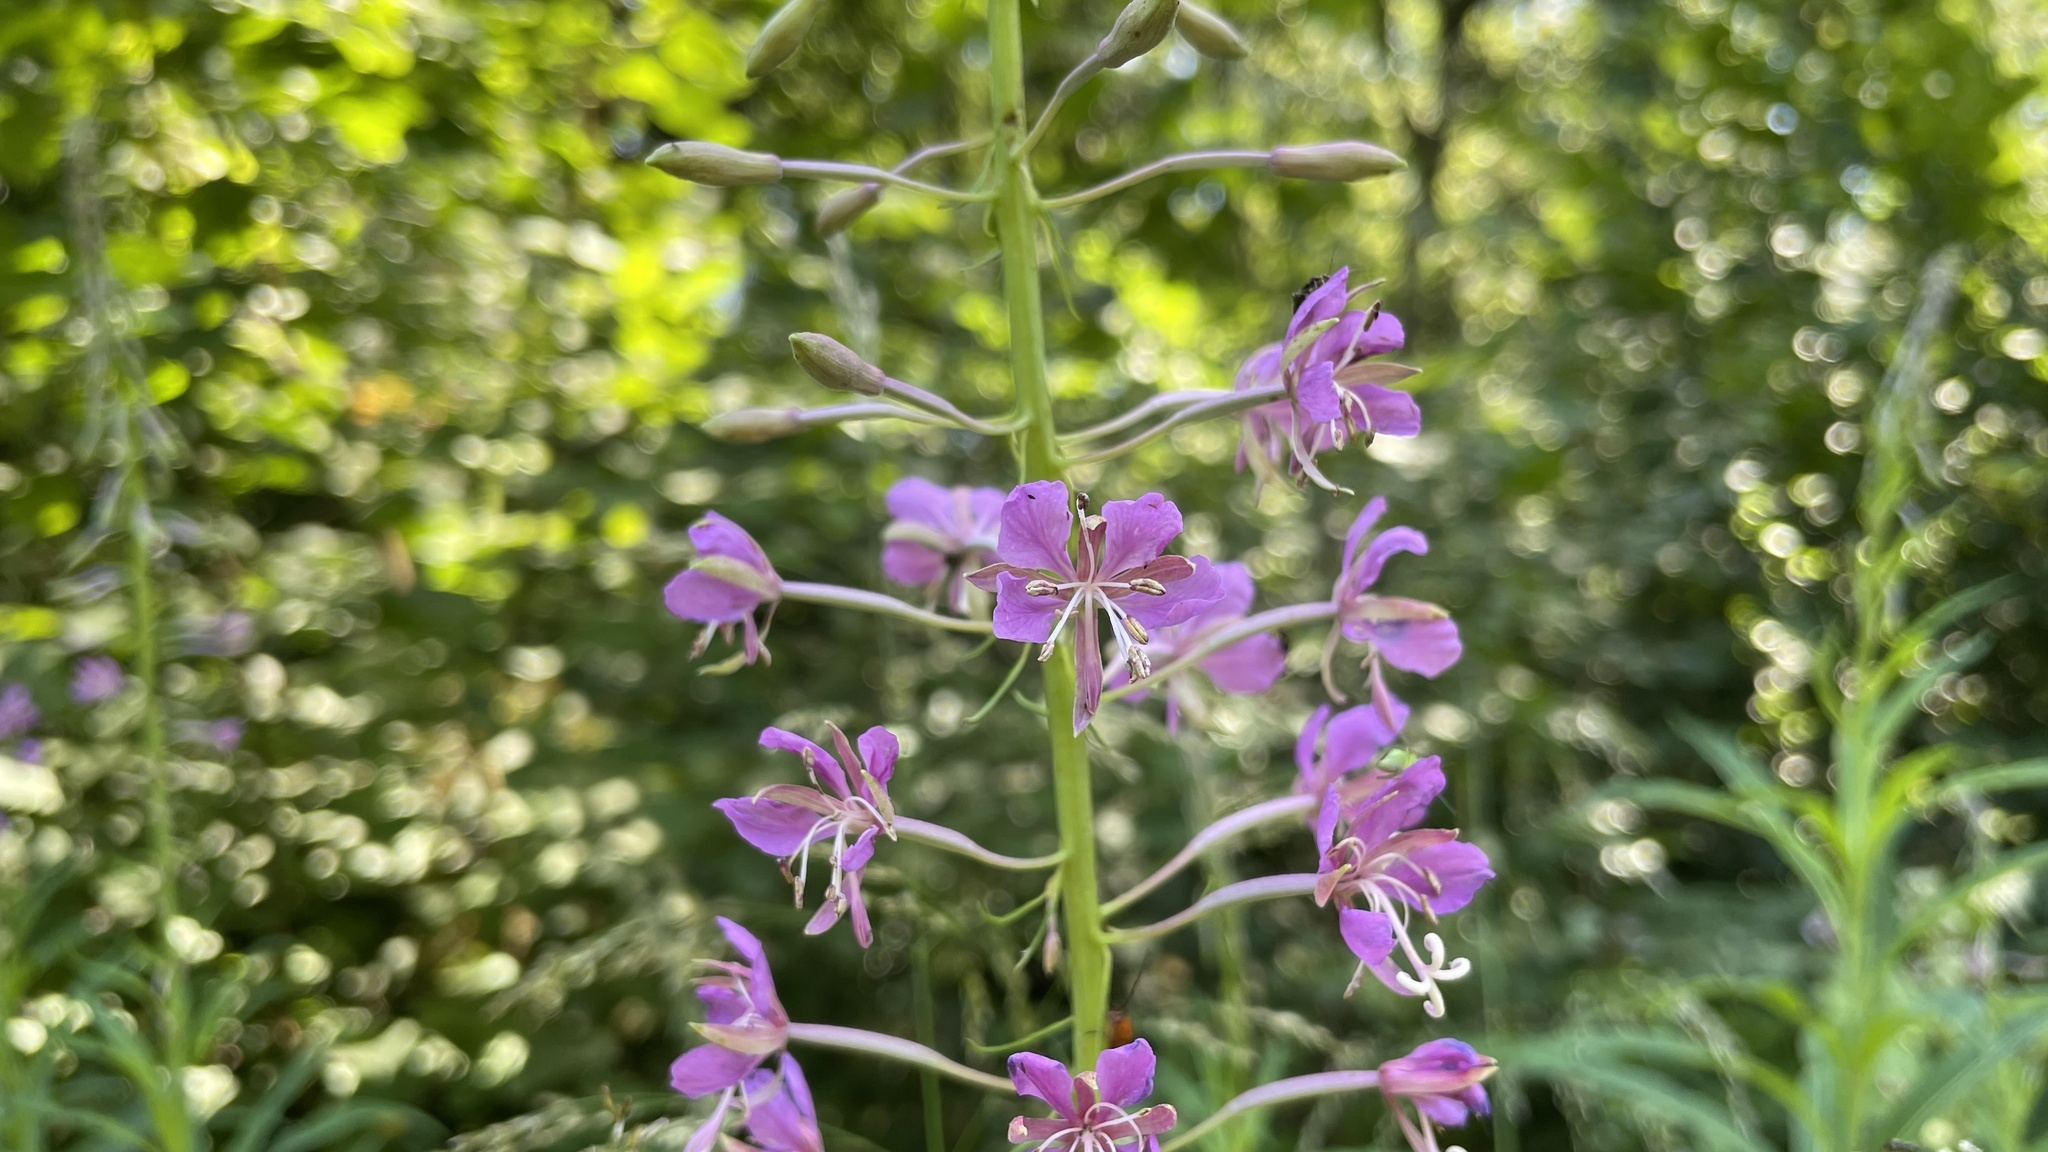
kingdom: Plantae
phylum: Tracheophyta
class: Magnoliopsida
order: Myrtales
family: Onagraceae
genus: Chamaenerion
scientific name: Chamaenerion angustifolium
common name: Fireweed
